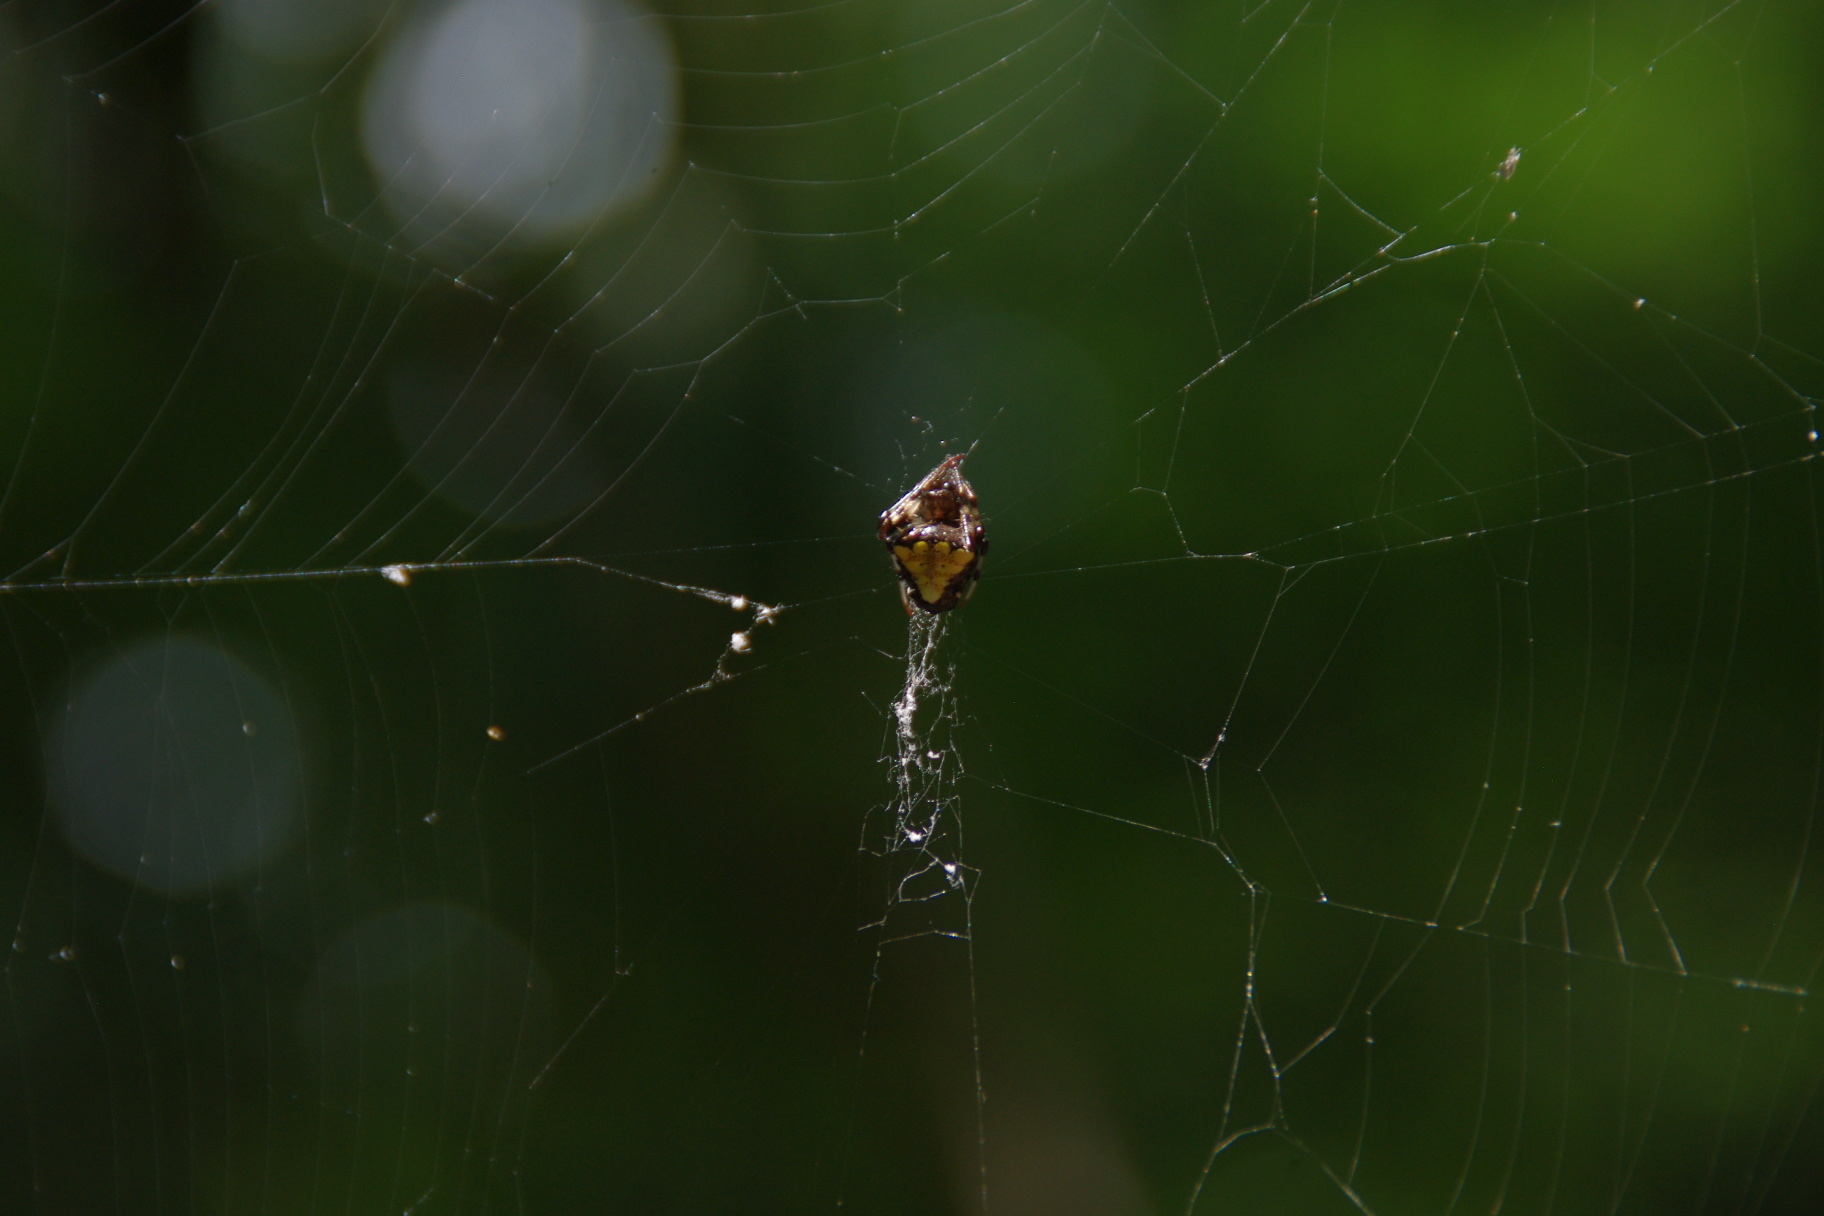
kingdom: Animalia
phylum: Arthropoda
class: Arachnida
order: Araneae
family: Araneidae
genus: Verrucosa
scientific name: Verrucosa arenata
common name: Orb weavers
